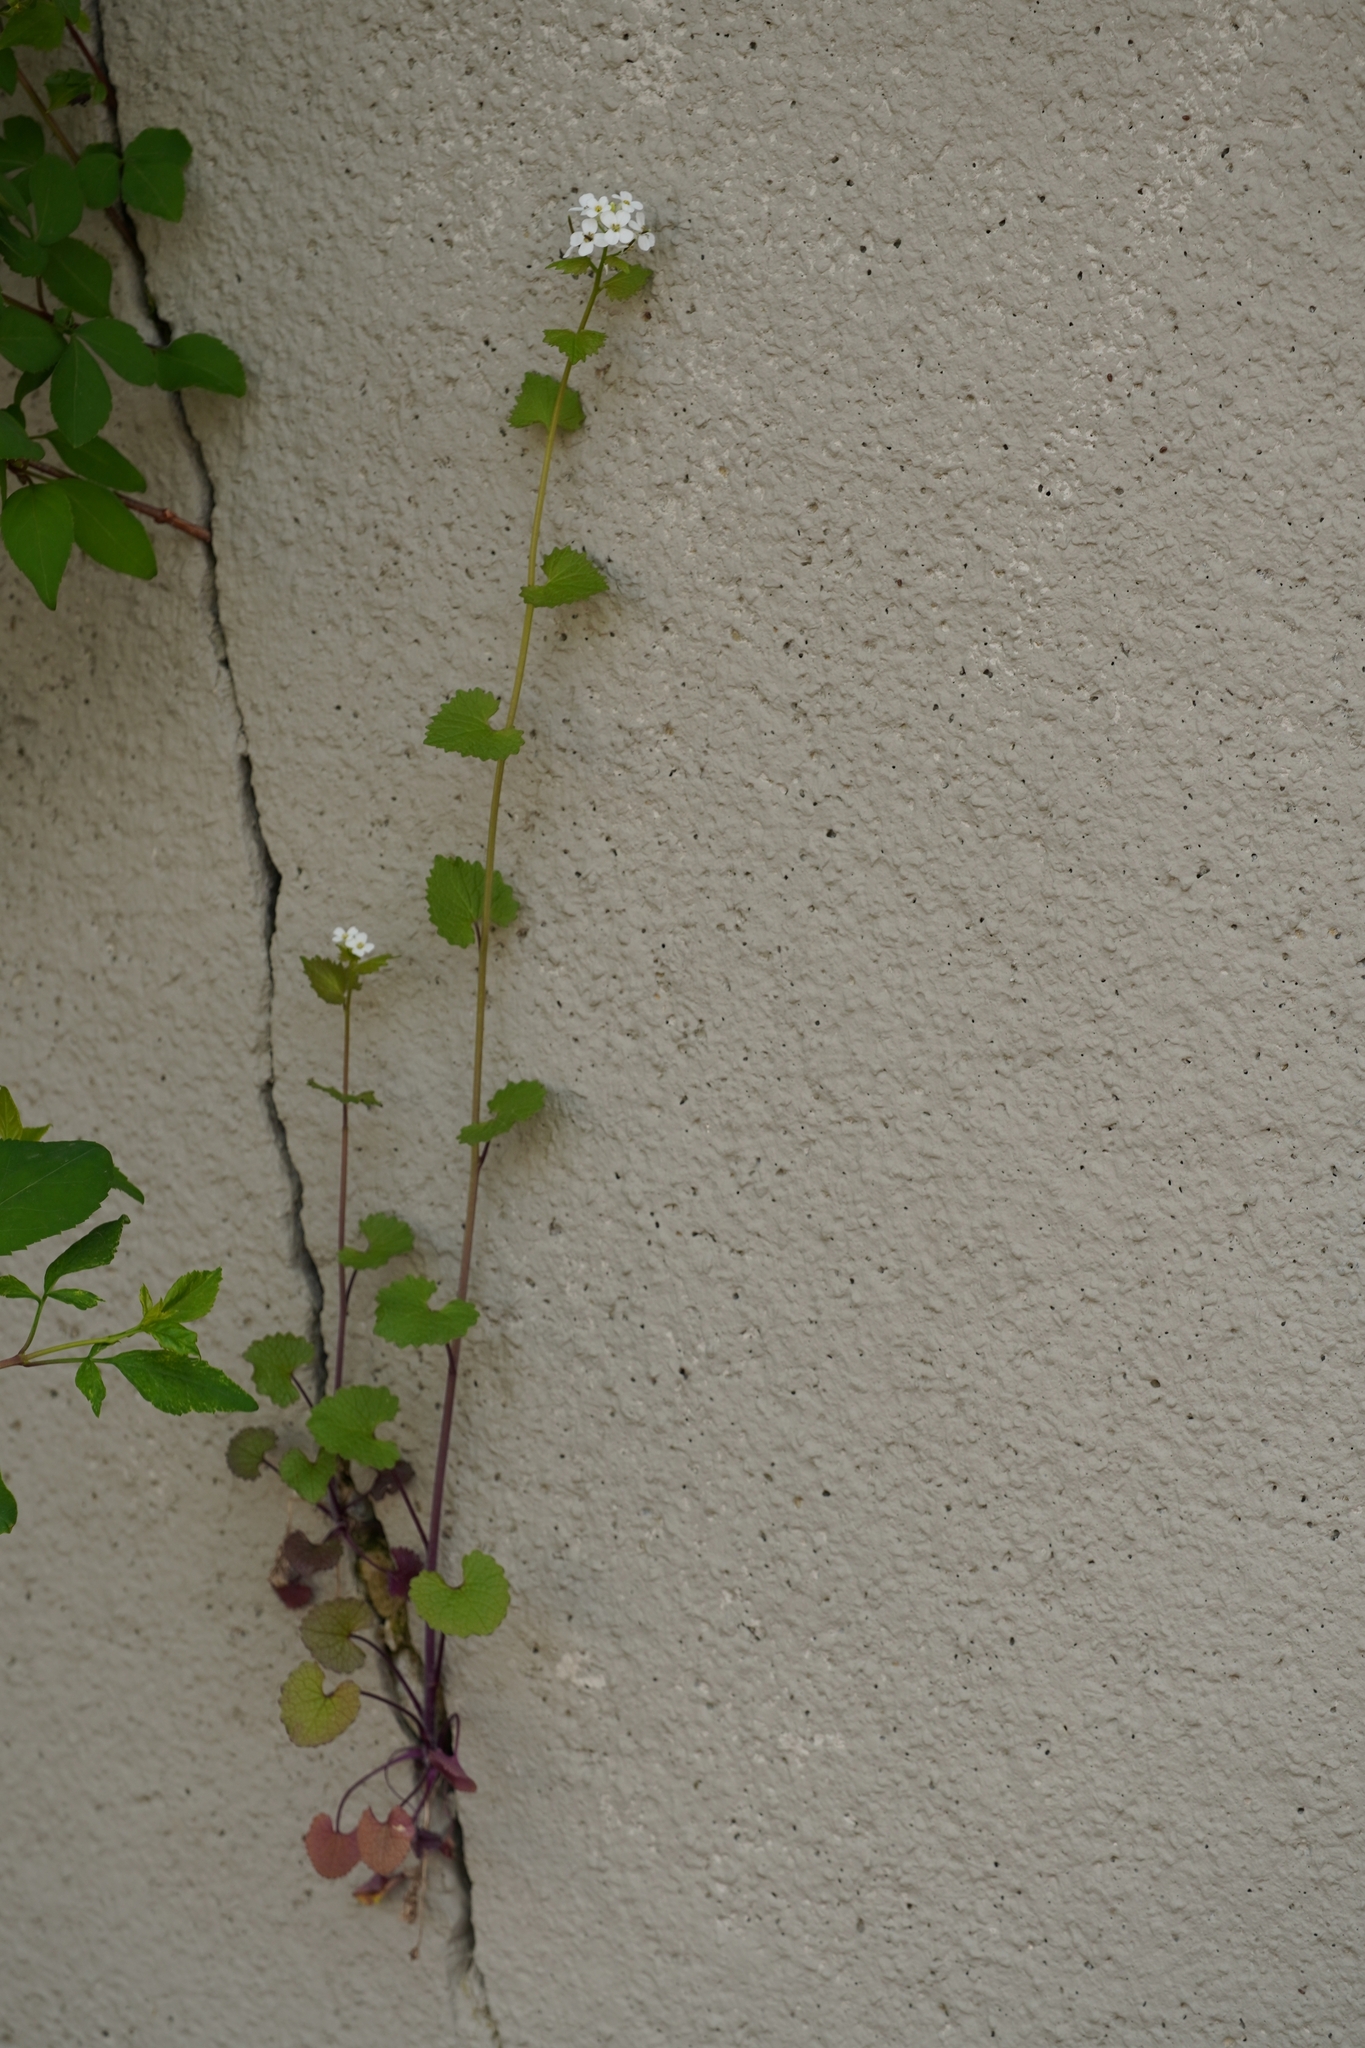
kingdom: Plantae
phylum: Tracheophyta
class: Magnoliopsida
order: Brassicales
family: Brassicaceae
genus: Alliaria
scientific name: Alliaria petiolata
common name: Garlic mustard
